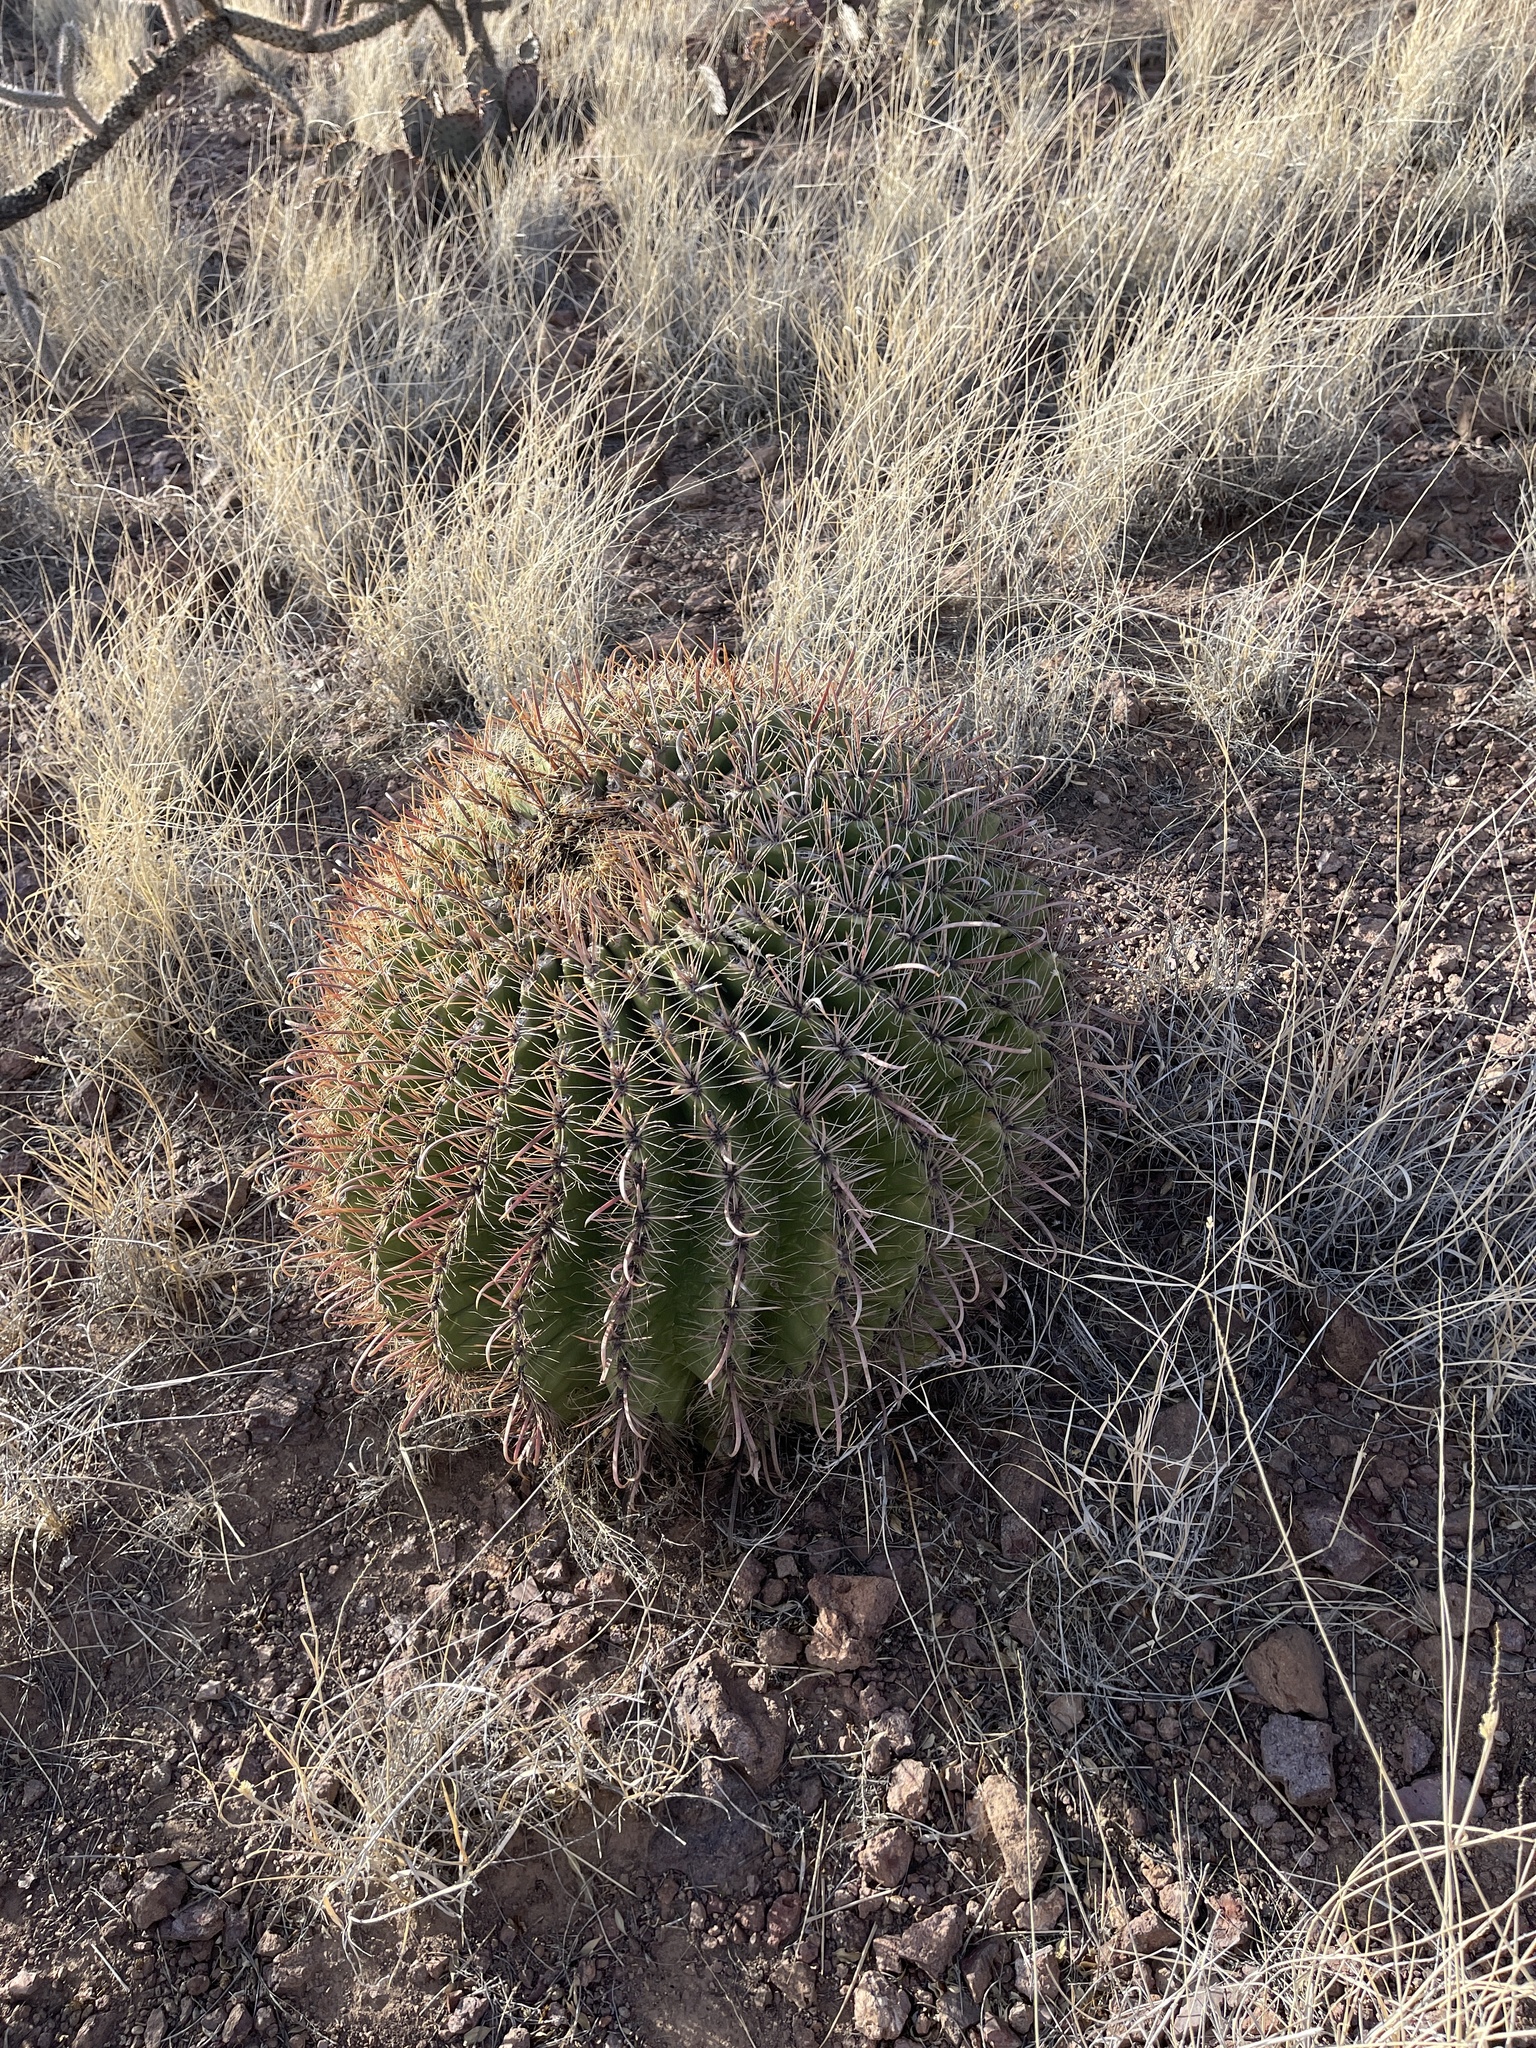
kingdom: Plantae
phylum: Tracheophyta
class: Magnoliopsida
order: Caryophyllales
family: Cactaceae
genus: Ferocactus
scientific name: Ferocactus wislizeni
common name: Candy barrel cactus
